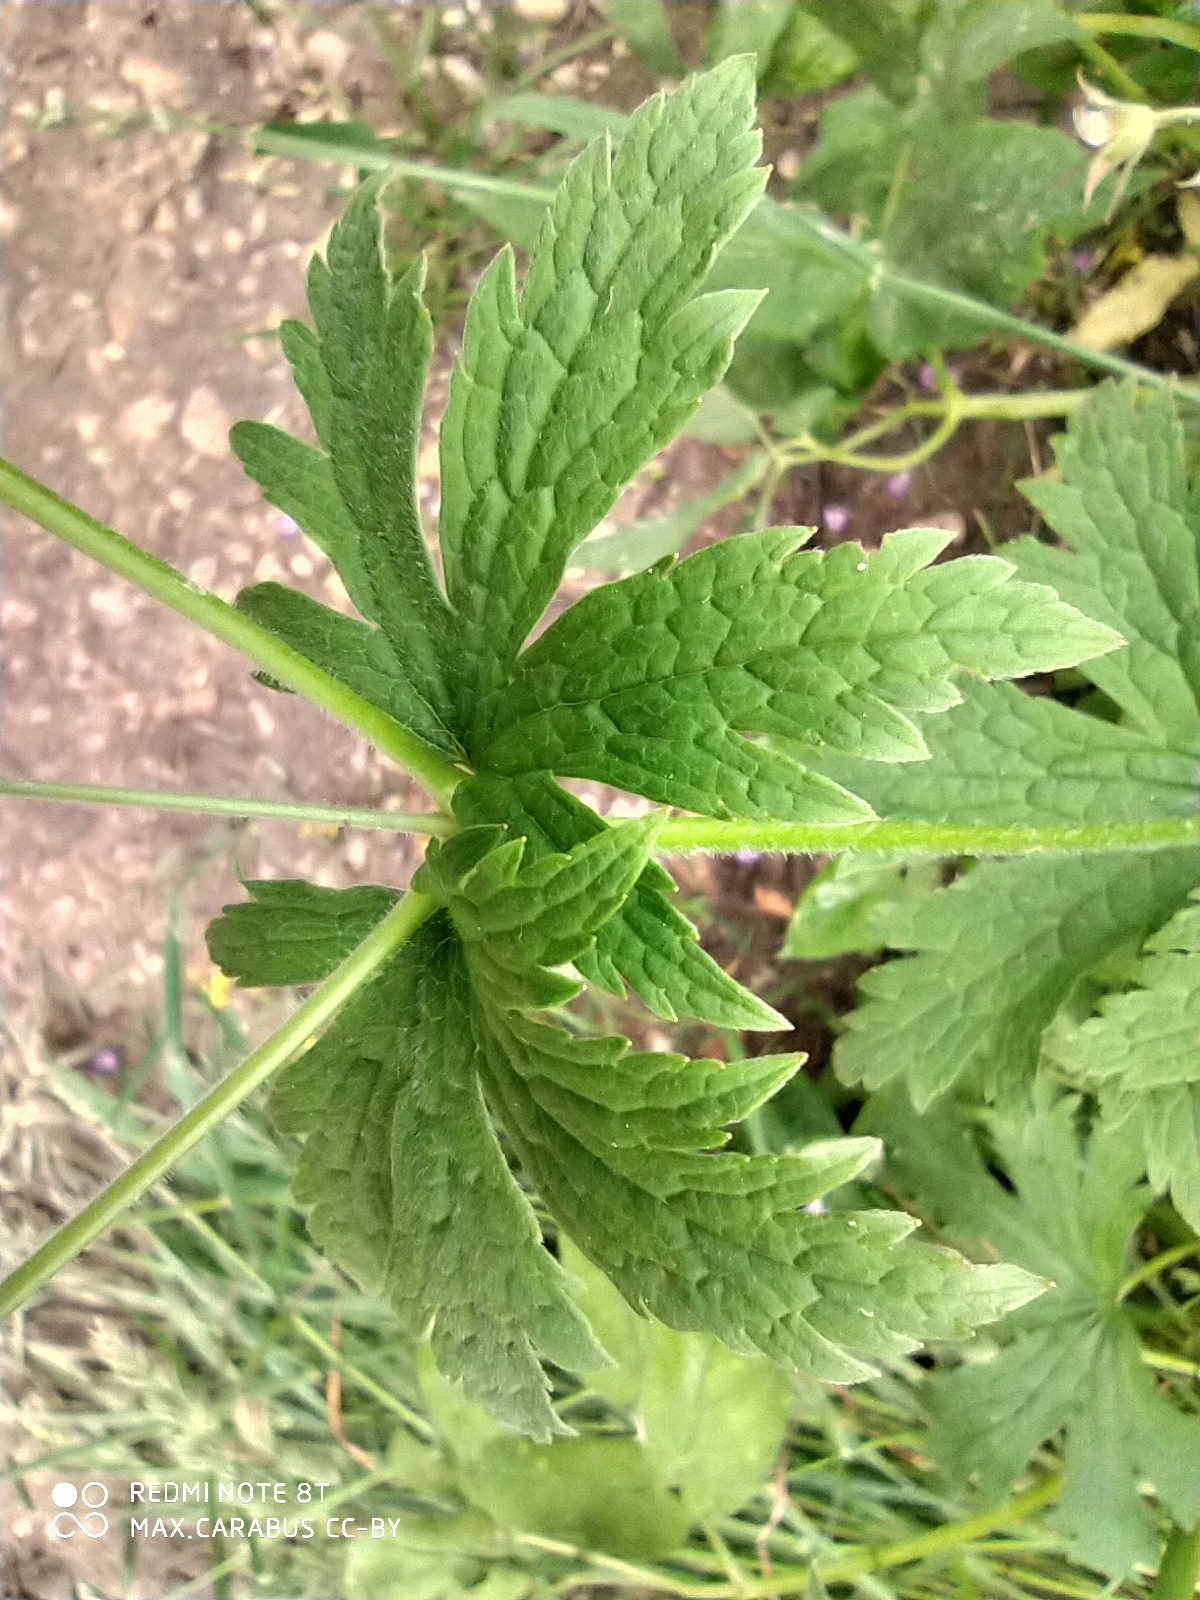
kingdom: Plantae
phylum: Tracheophyta
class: Magnoliopsida
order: Geraniales
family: Geraniaceae
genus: Geranium
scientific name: Geranium sylvaticum
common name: Wood crane's-bill
